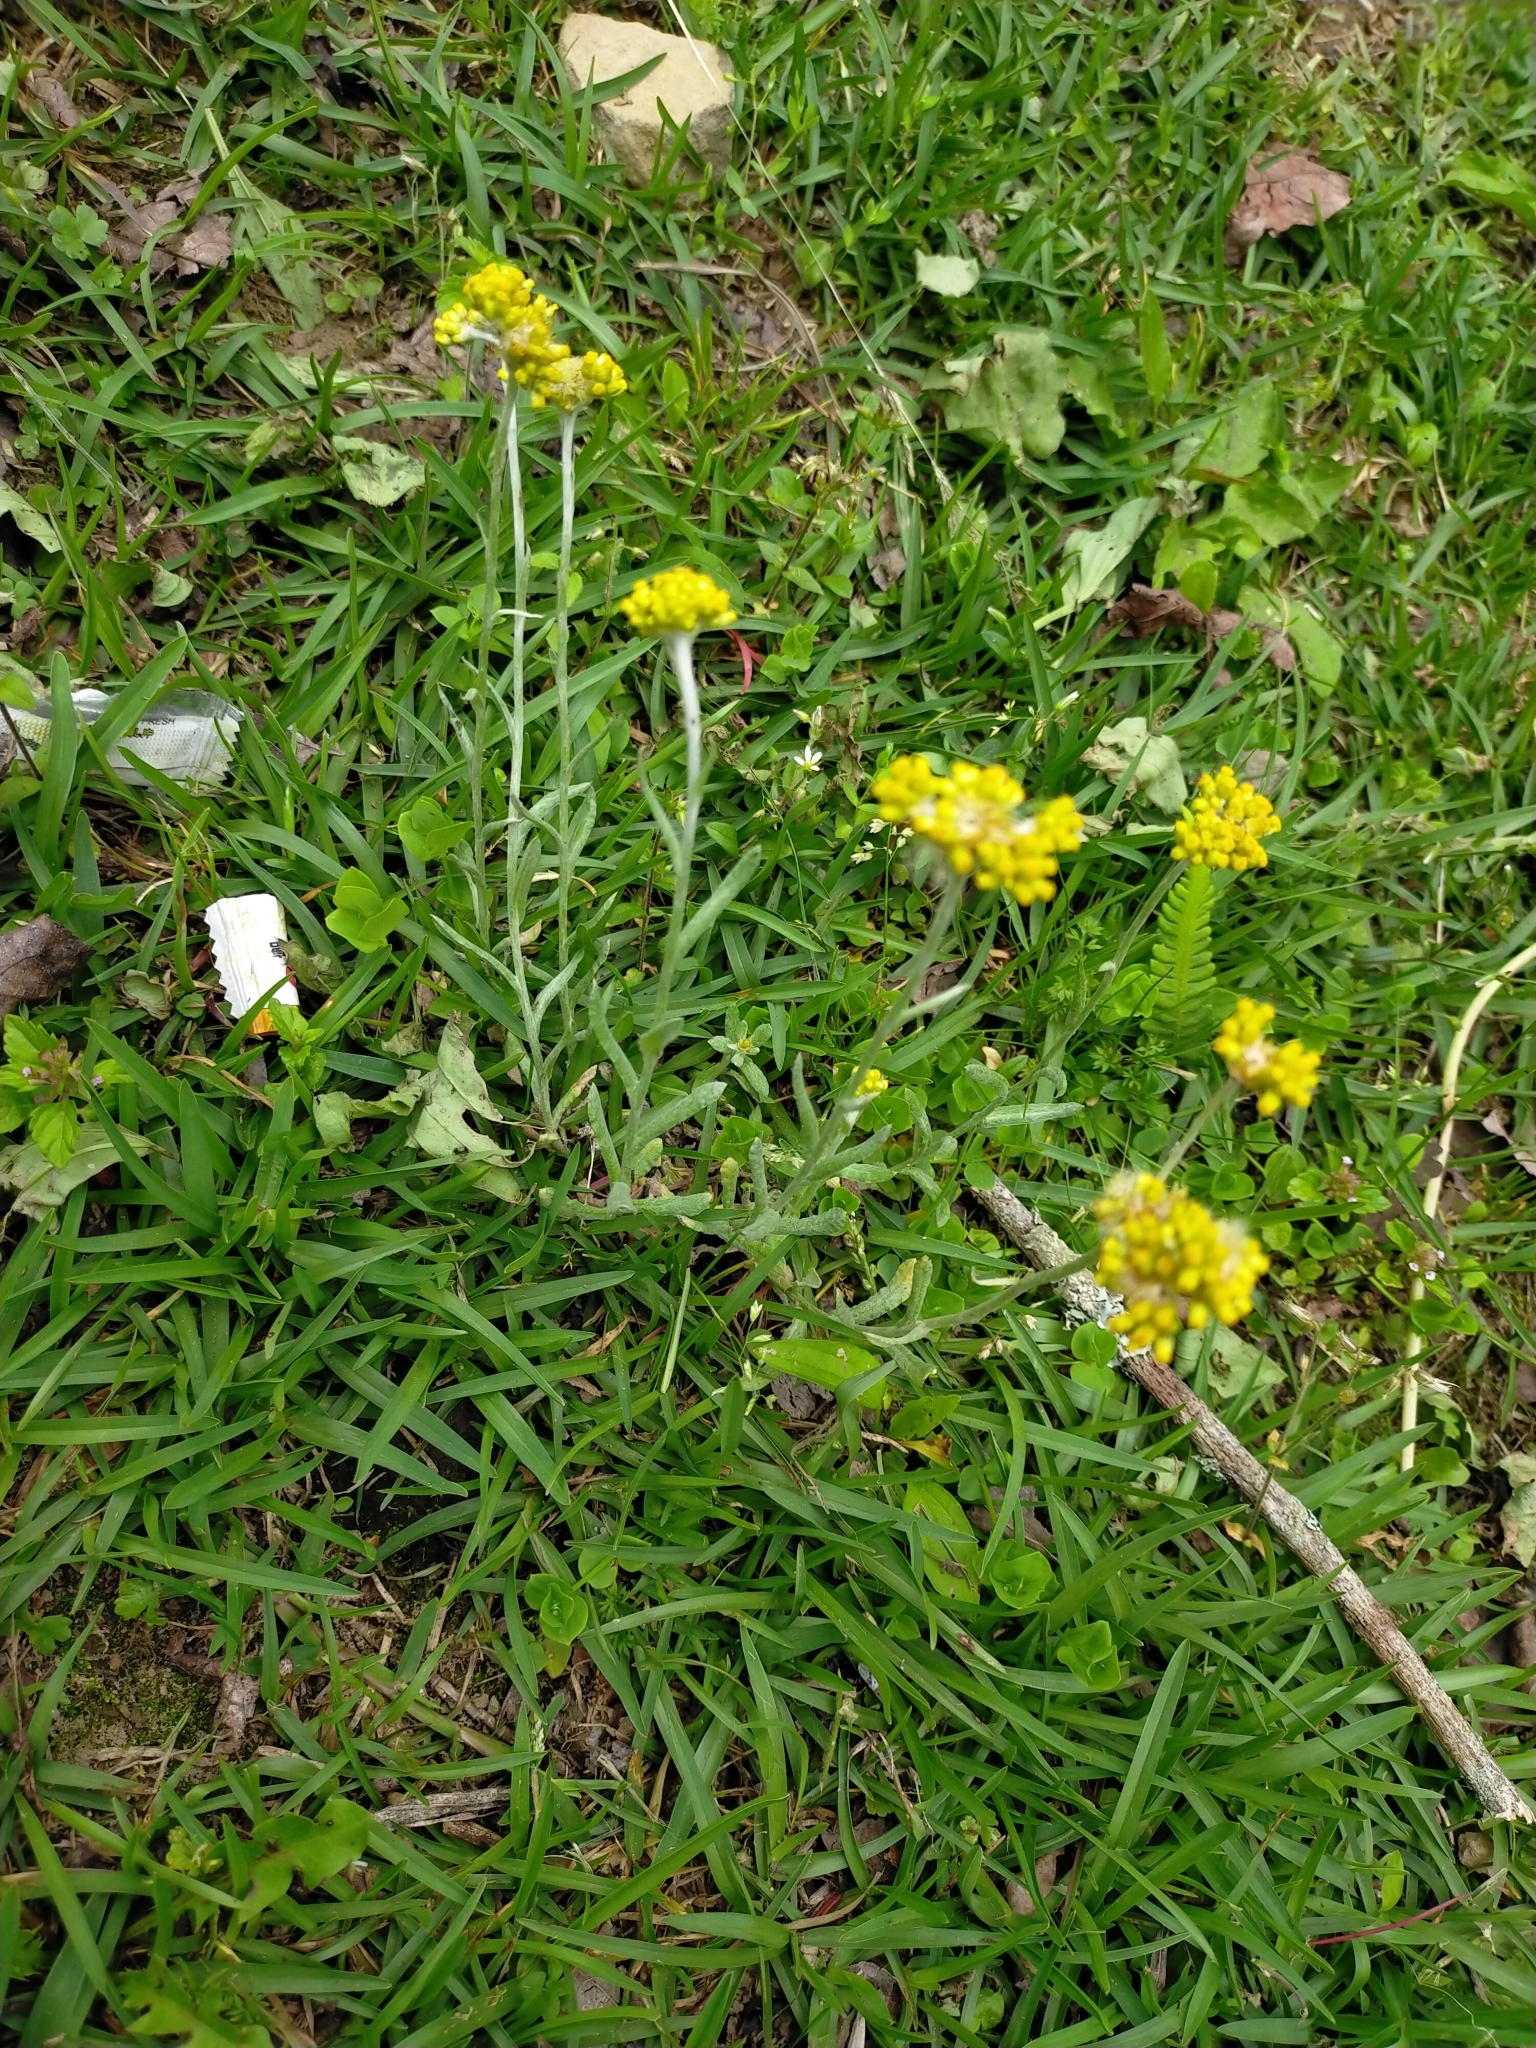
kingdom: Plantae
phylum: Tracheophyta
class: Magnoliopsida
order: Asterales
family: Asteraceae
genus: Pseudognaphalium
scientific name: Pseudognaphalium affine
